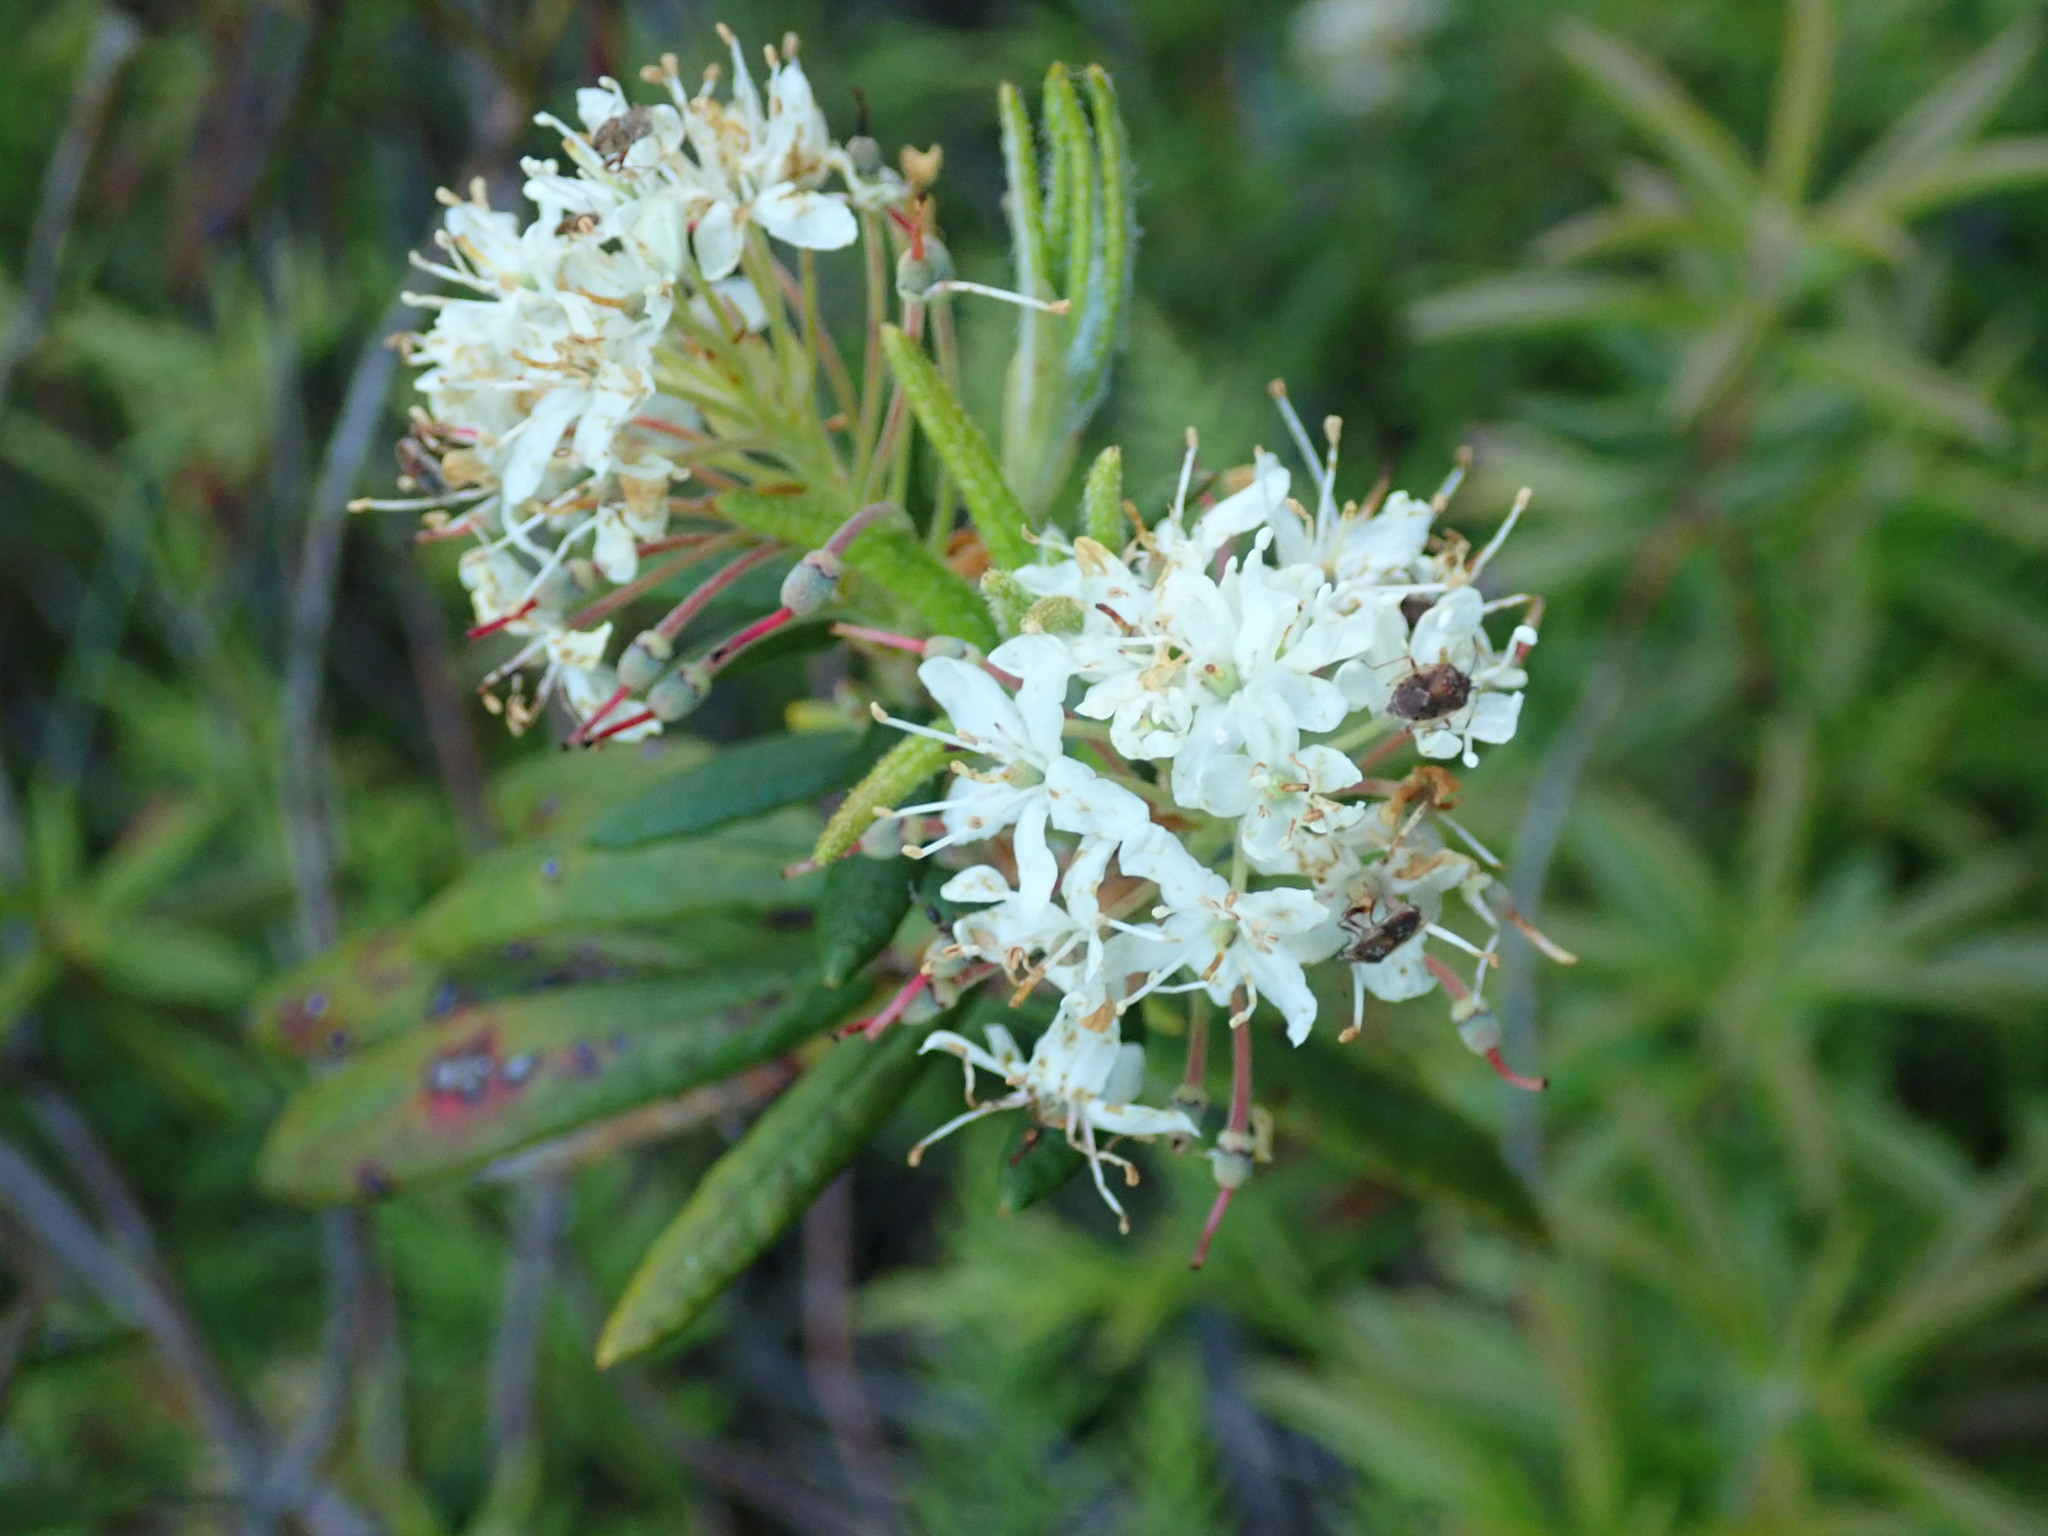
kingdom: Plantae
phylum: Tracheophyta
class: Magnoliopsida
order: Ericales
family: Ericaceae
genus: Rhododendron
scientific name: Rhododendron groenlandicum
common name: Bog labrador tea
